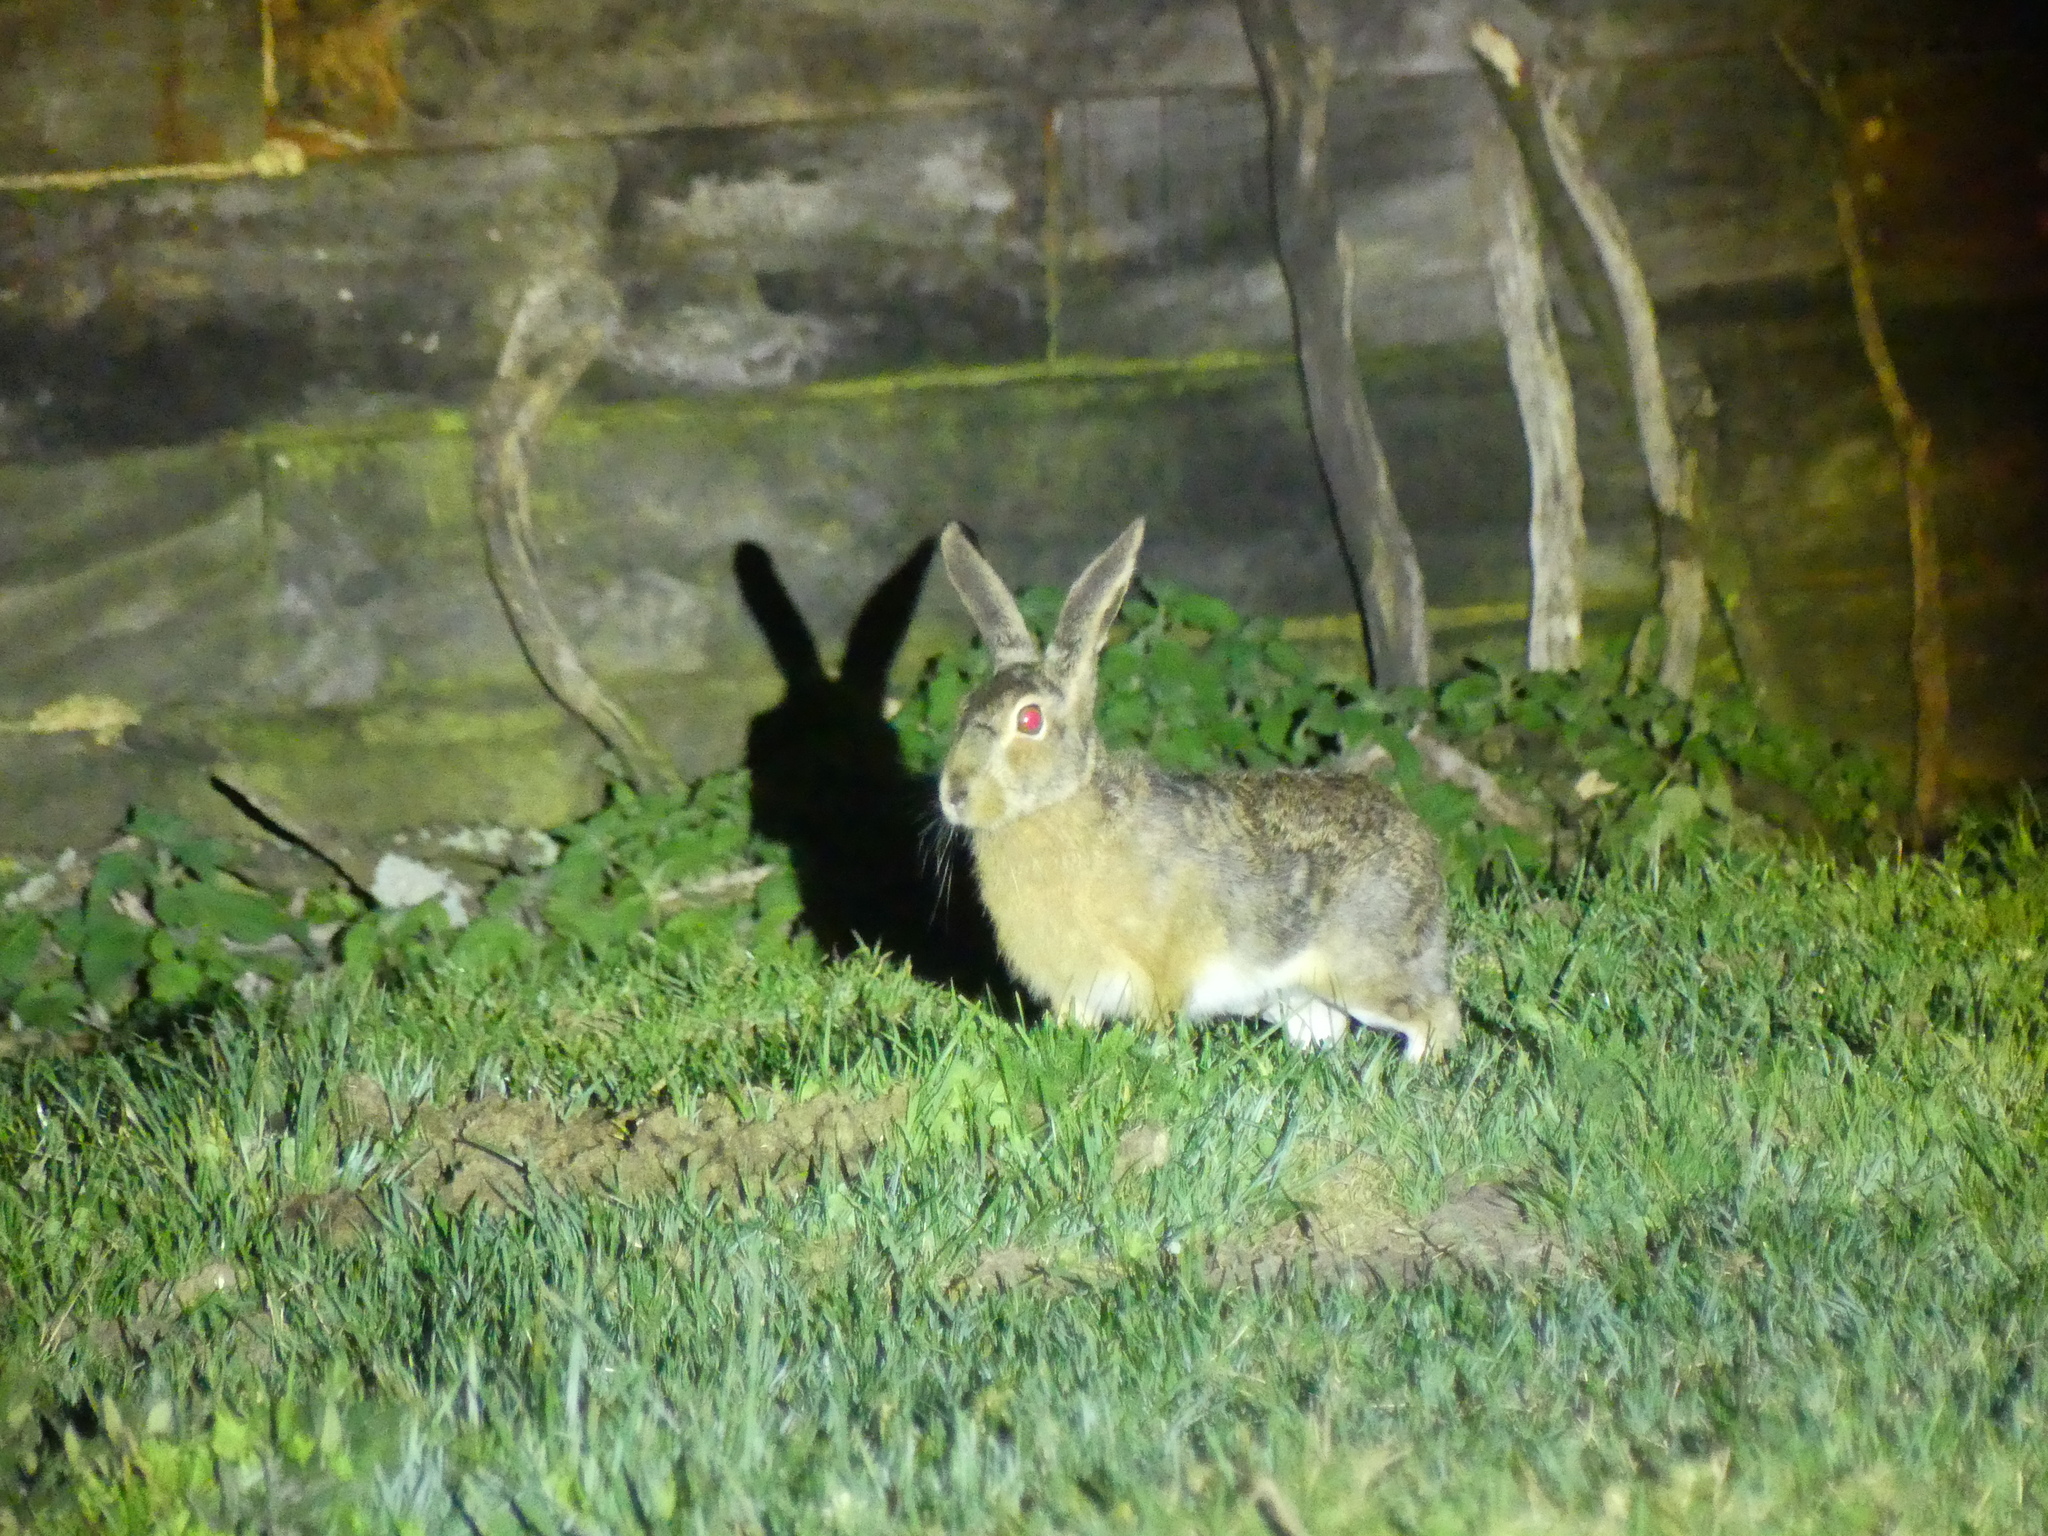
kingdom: Animalia
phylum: Chordata
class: Mammalia
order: Lagomorpha
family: Leporidae
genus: Lepus
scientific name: Lepus castroviejoi
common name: Broom hare
